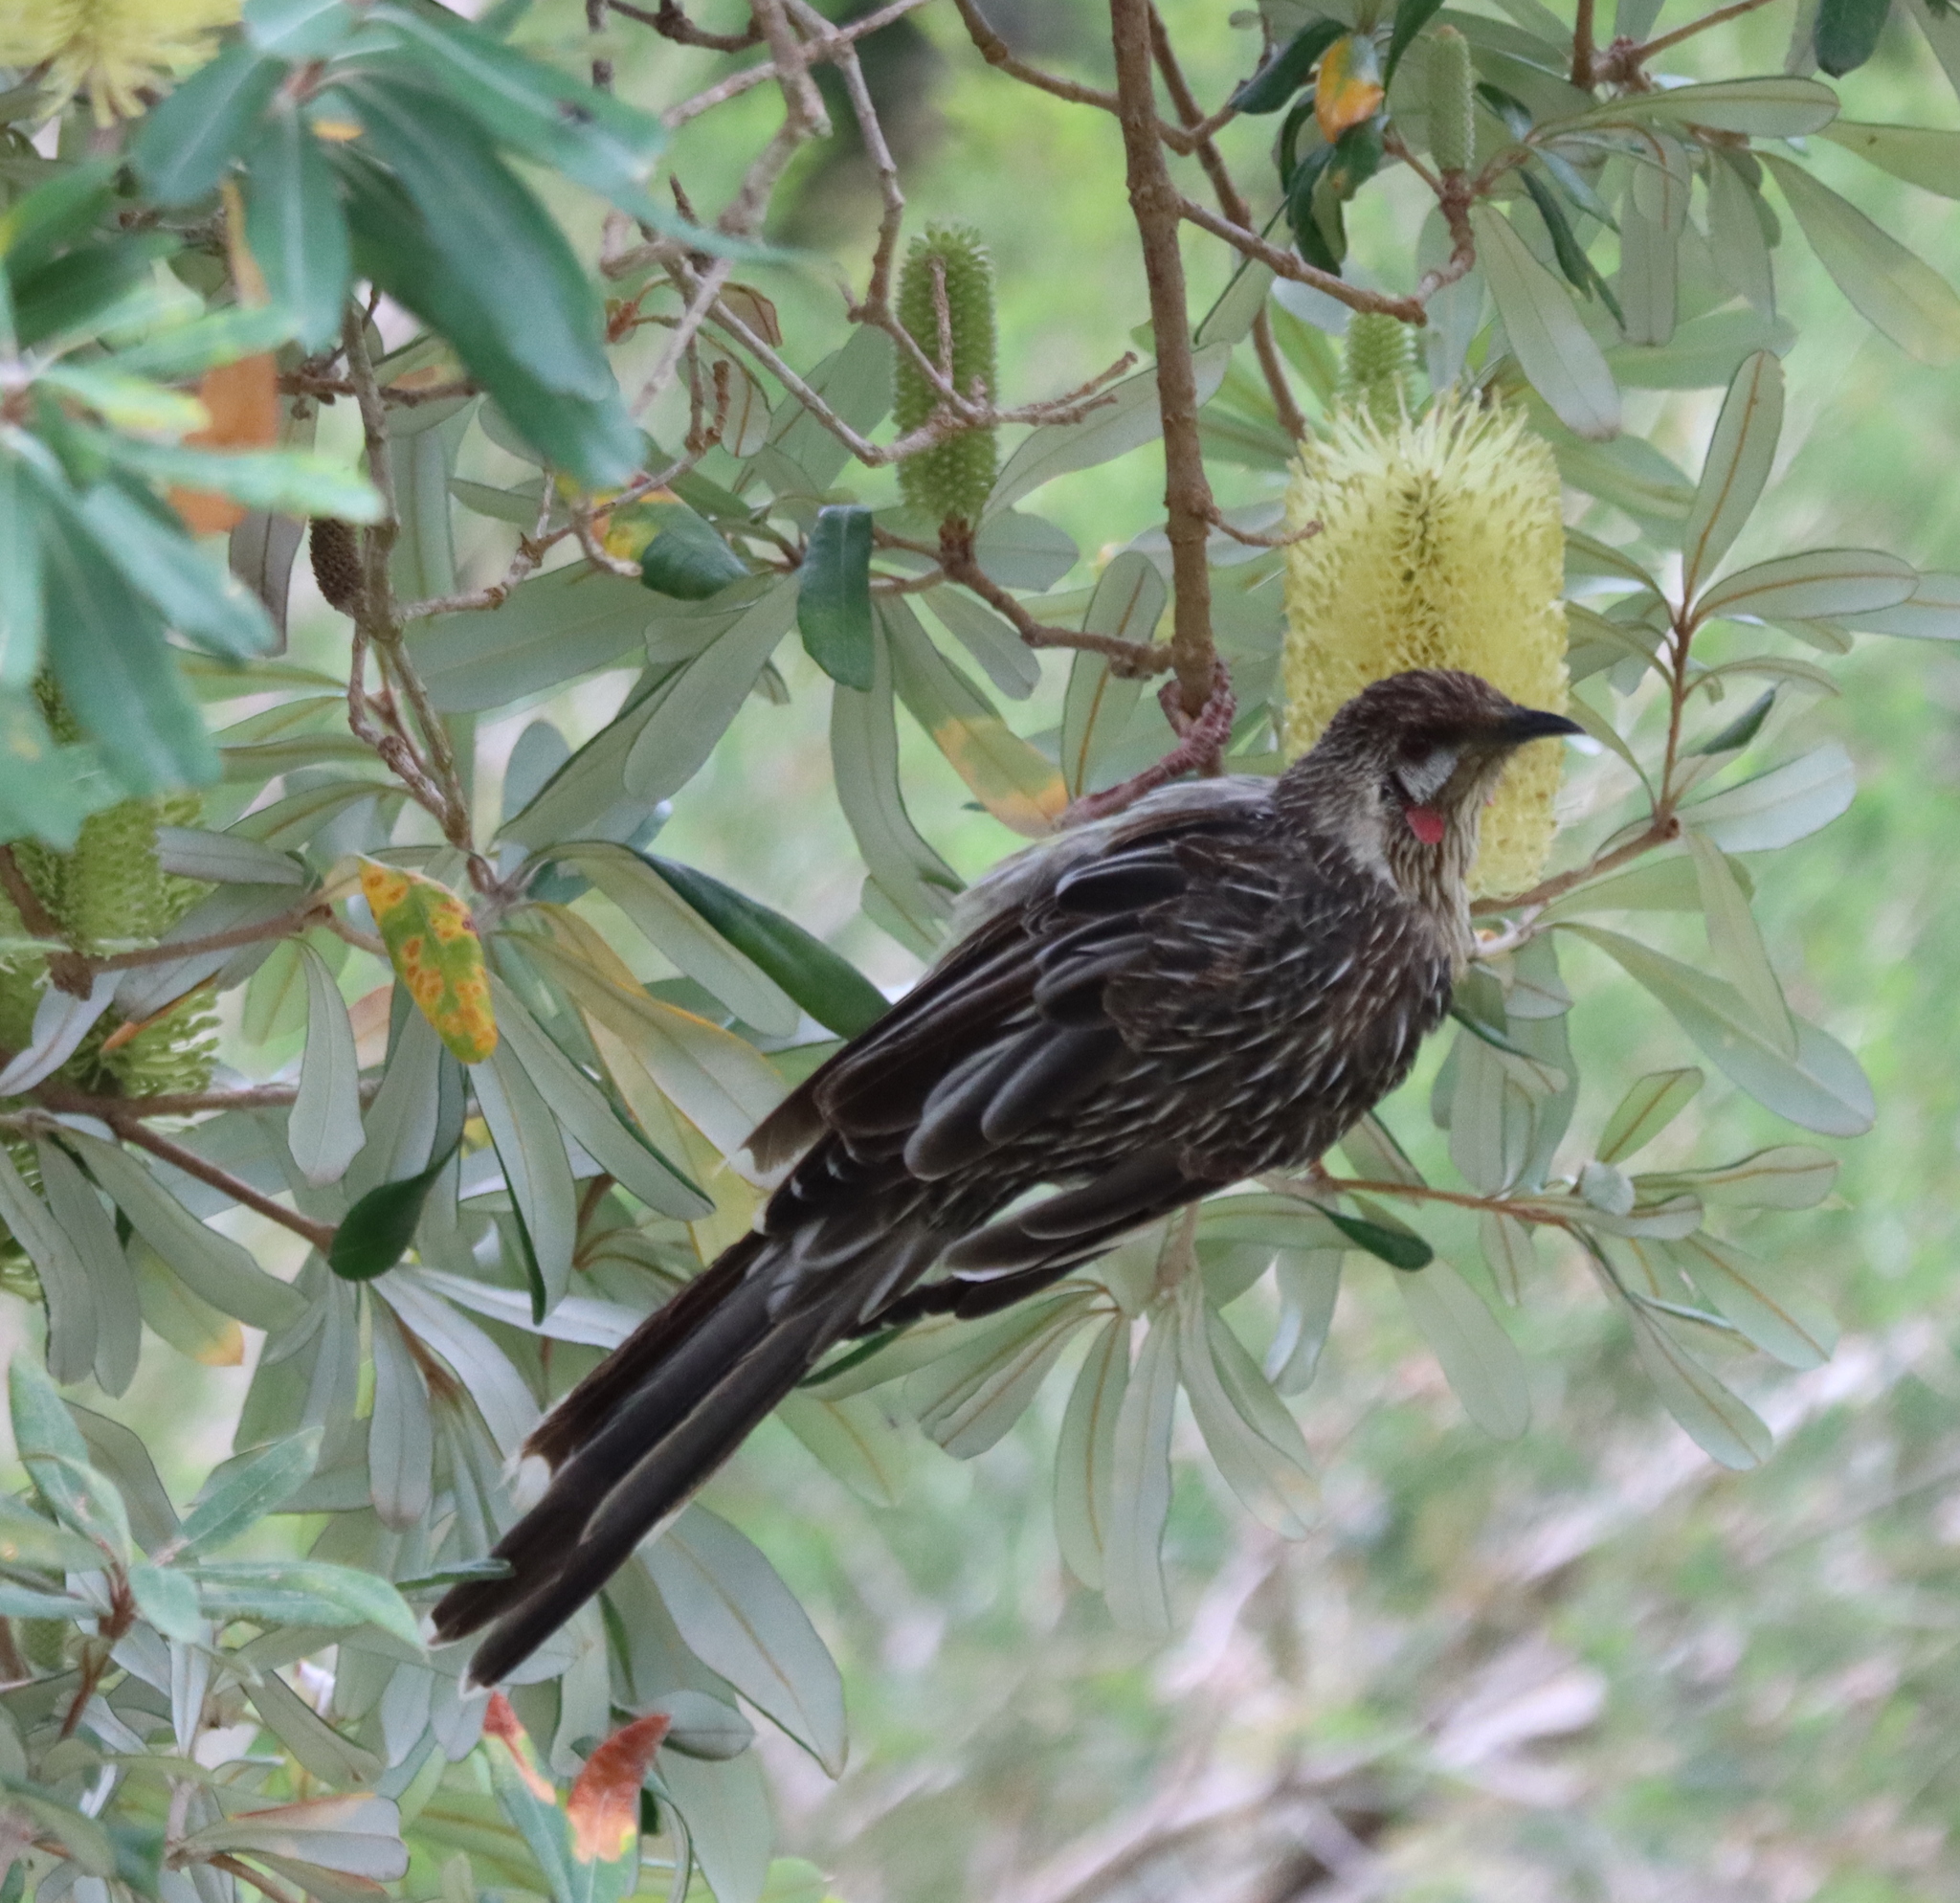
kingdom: Animalia
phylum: Chordata
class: Aves
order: Passeriformes
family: Meliphagidae
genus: Anthochaera
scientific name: Anthochaera carunculata
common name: Red wattlebird
